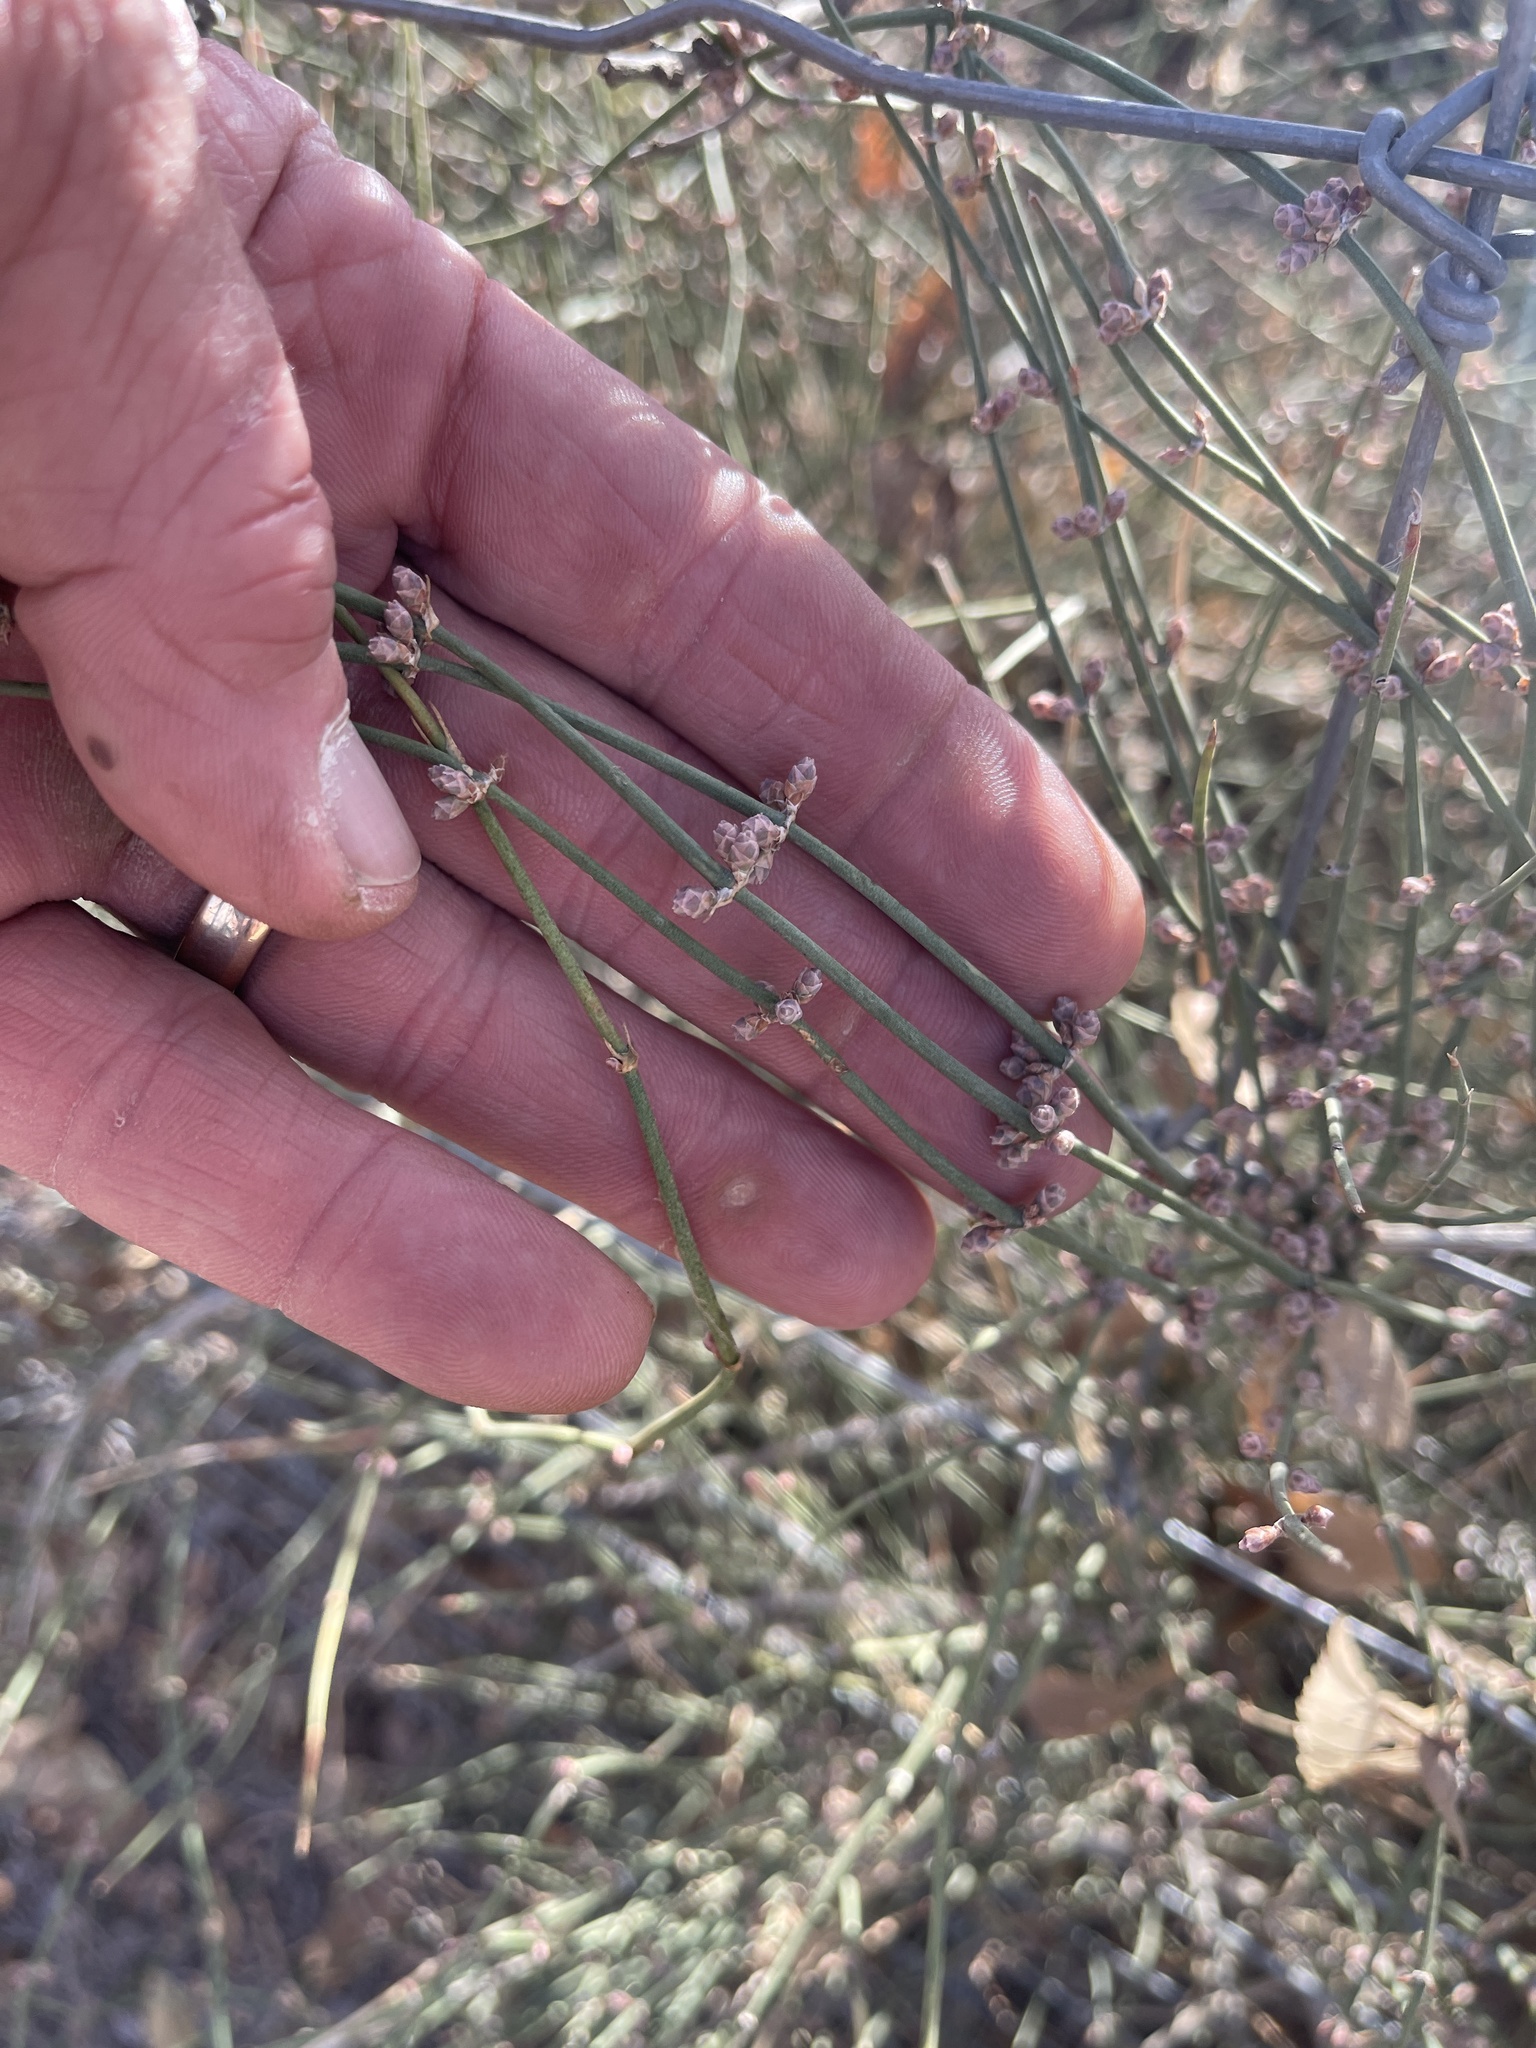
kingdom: Plantae
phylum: Tracheophyta
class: Gnetopsida
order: Ephedrales
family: Ephedraceae
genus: Ephedra
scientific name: Ephedra antisyphilitica
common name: Clipweed
